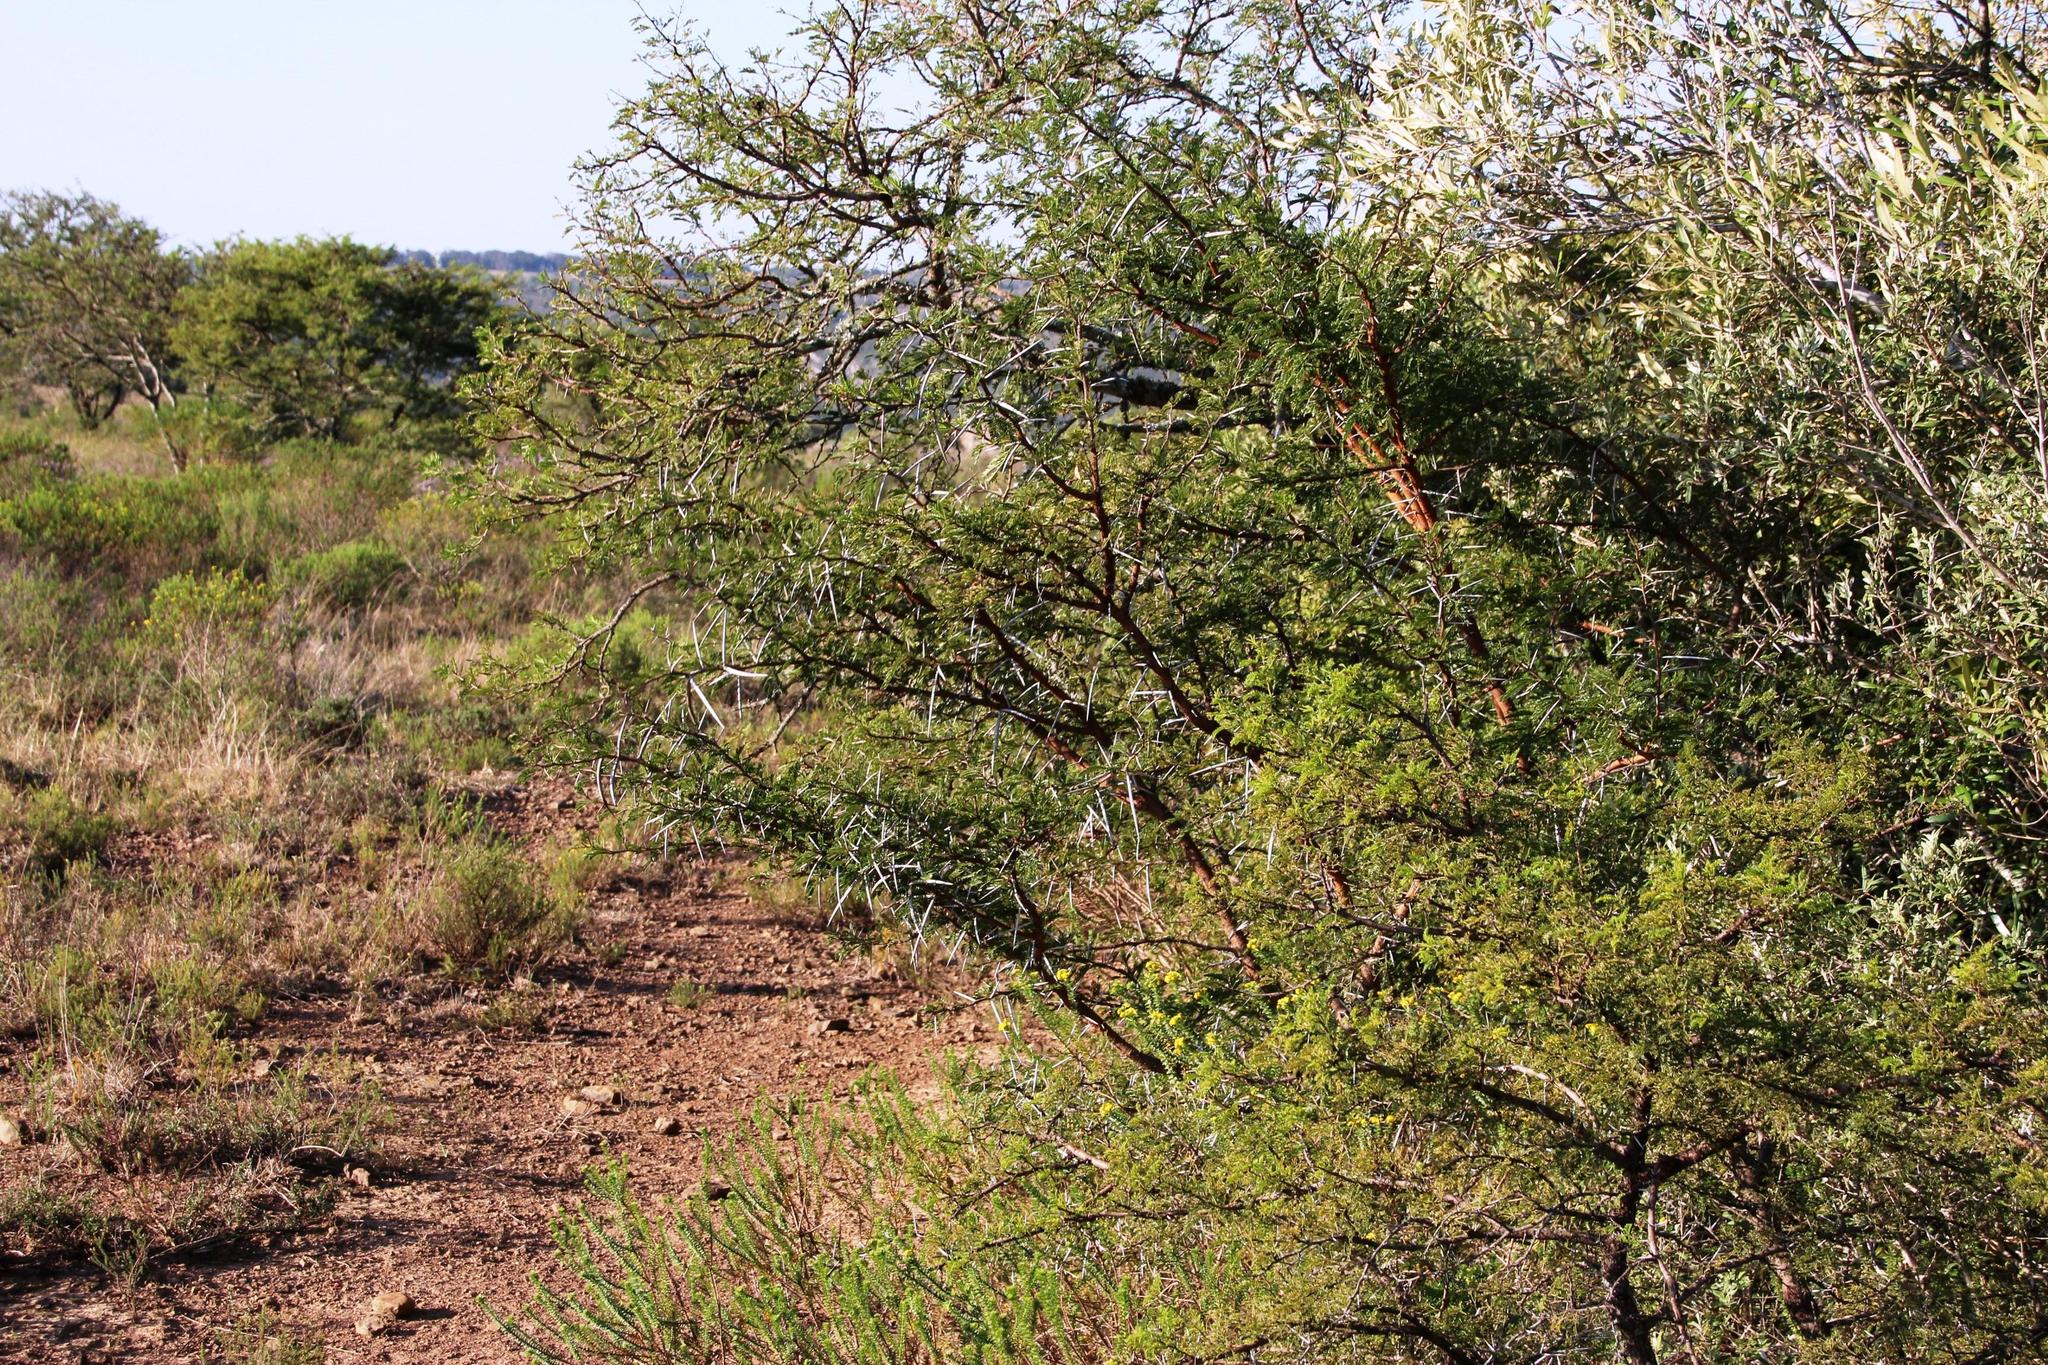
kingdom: Plantae
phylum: Tracheophyta
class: Magnoliopsida
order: Fabales
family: Fabaceae
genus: Vachellia
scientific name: Vachellia karroo
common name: Sweet thorn
